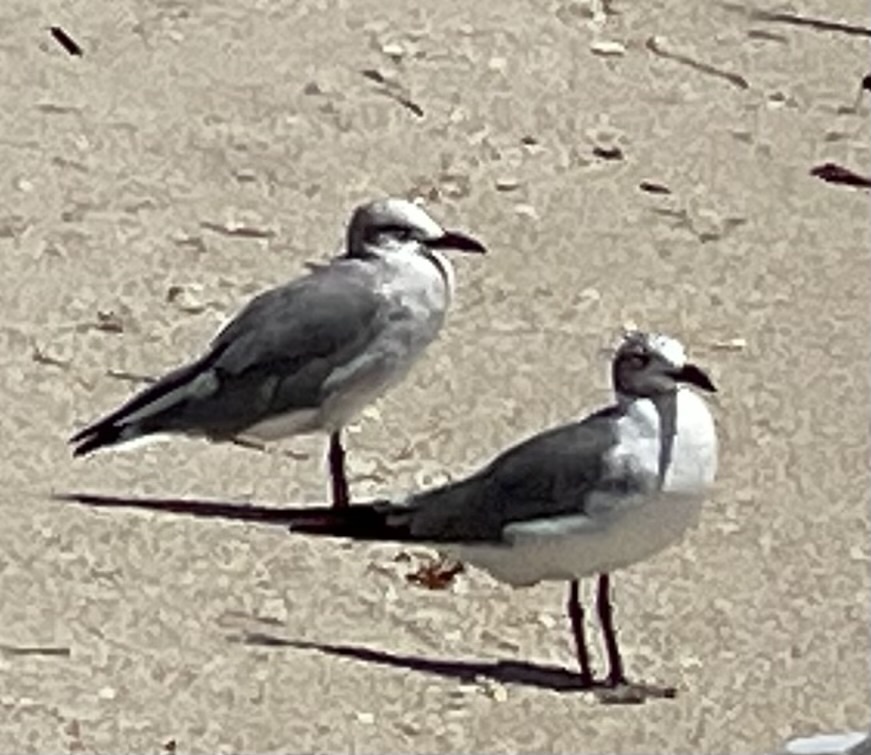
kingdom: Animalia
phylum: Chordata
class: Aves
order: Charadriiformes
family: Laridae
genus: Leucophaeus
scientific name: Leucophaeus atricilla
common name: Laughing gull
